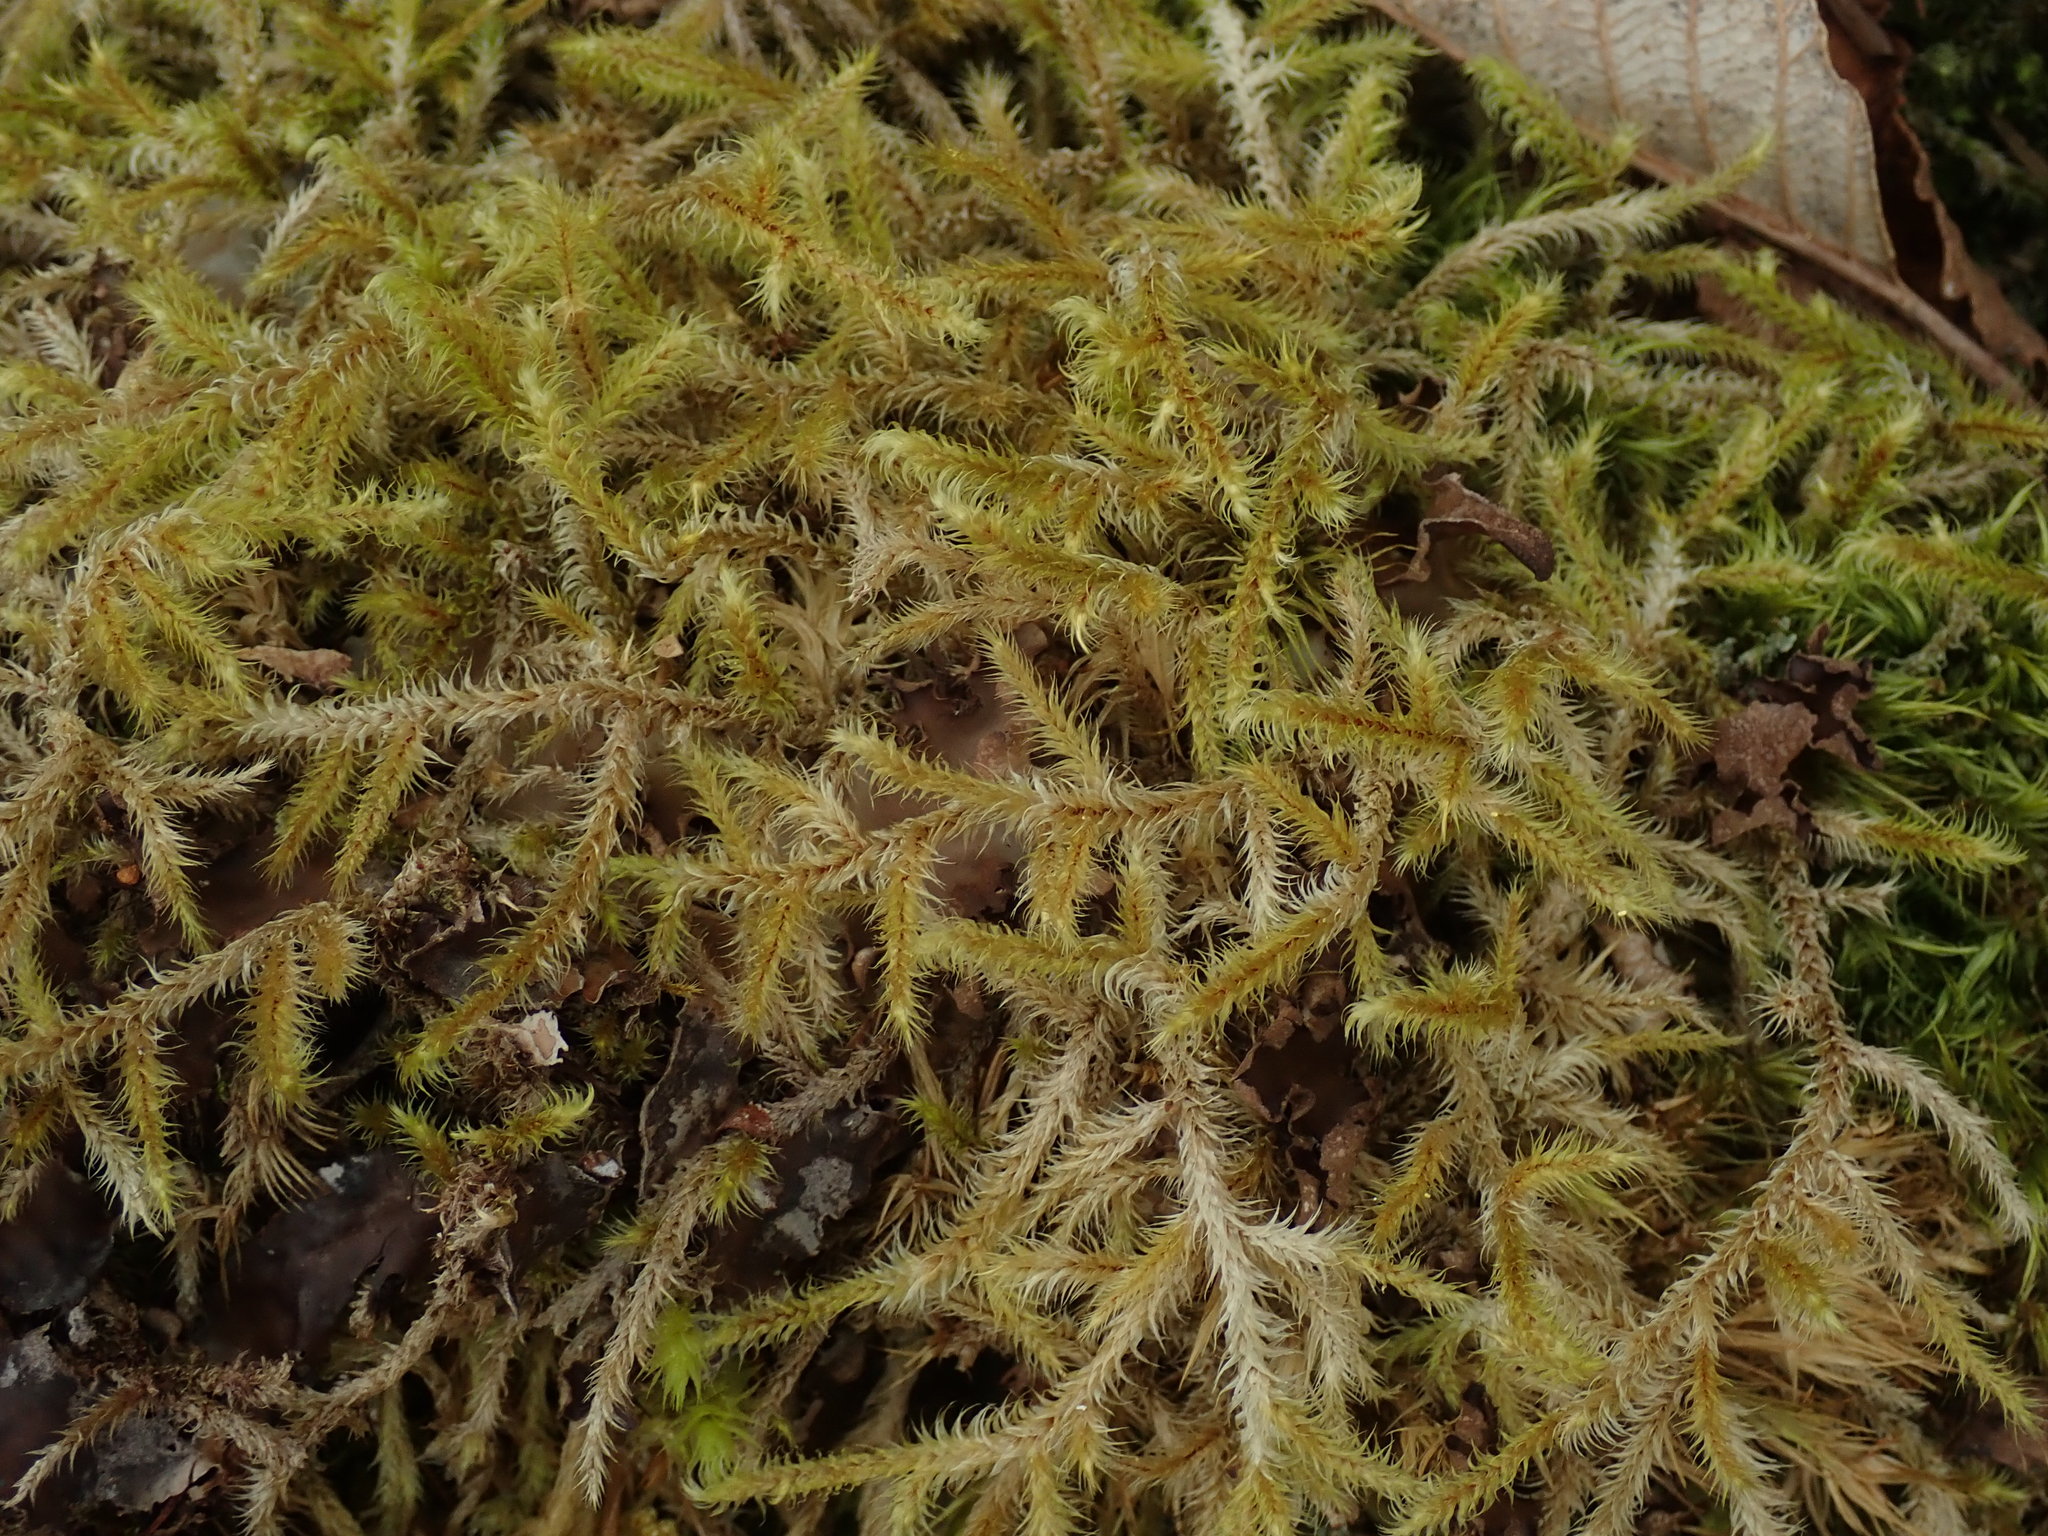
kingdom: Plantae
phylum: Bryophyta
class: Bryopsida
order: Hypnales
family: Hylocomiaceae
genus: Rhytidiadelphus
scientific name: Rhytidiadelphus loreus
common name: Lanky moss
